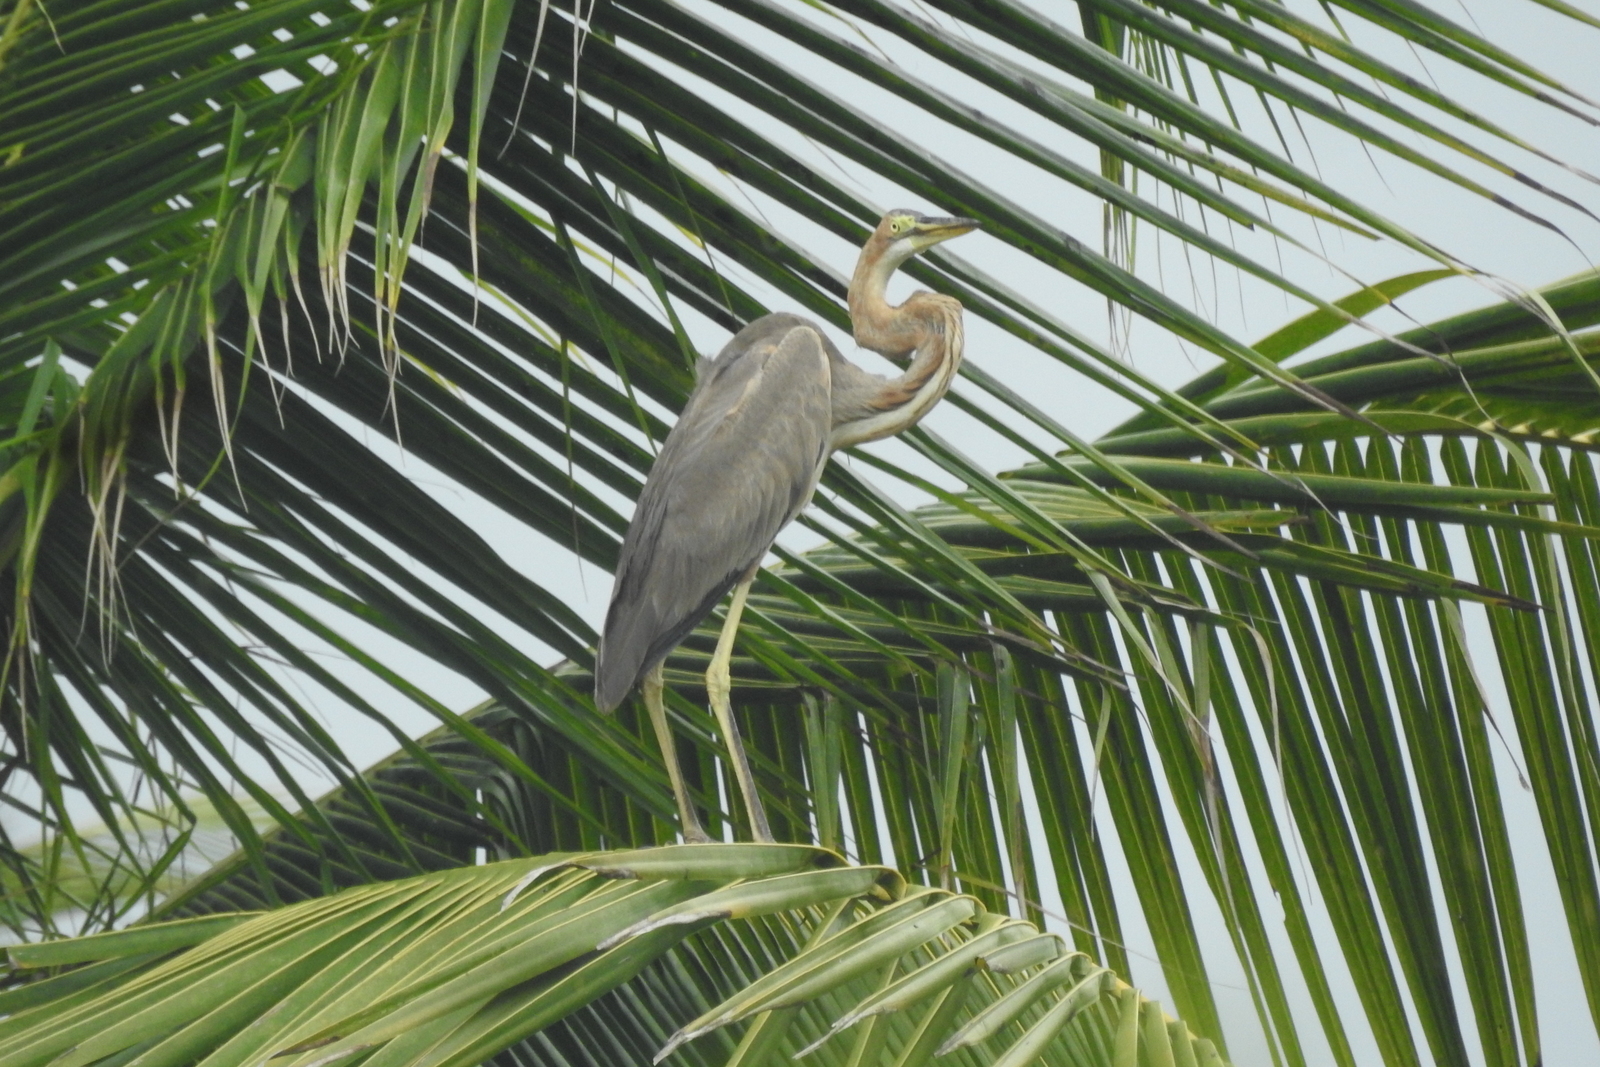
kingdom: Animalia
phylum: Chordata
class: Aves
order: Pelecaniformes
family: Ardeidae
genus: Ardea
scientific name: Ardea purpurea
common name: Purple heron
